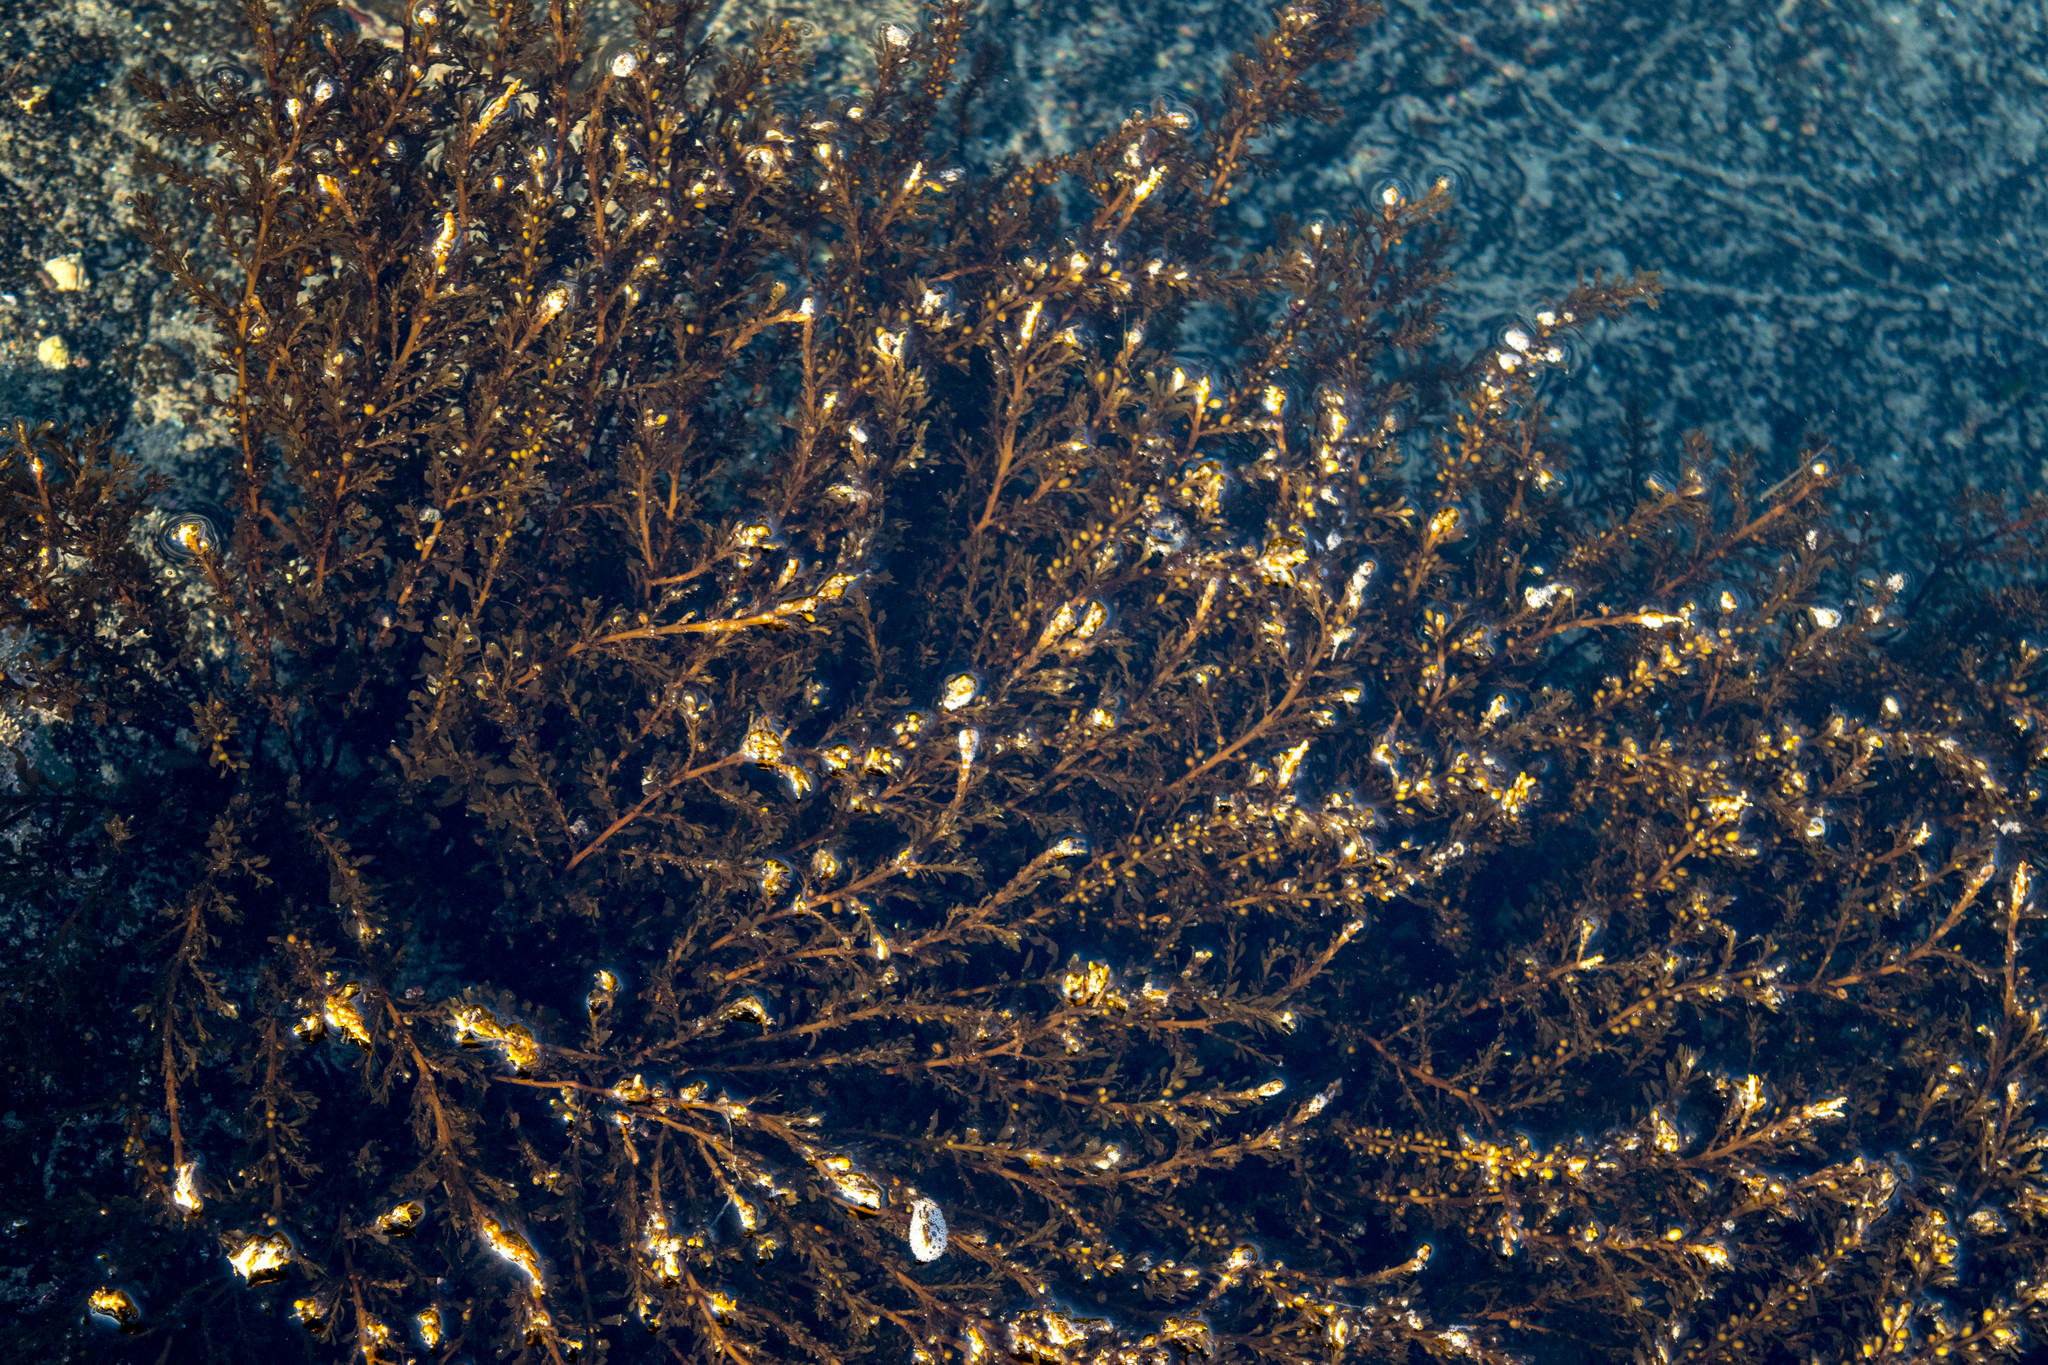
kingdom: Chromista
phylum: Ochrophyta
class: Phaeophyceae
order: Fucales
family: Sargassaceae
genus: Sargassum
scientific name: Sargassum muticum
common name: Japweed
